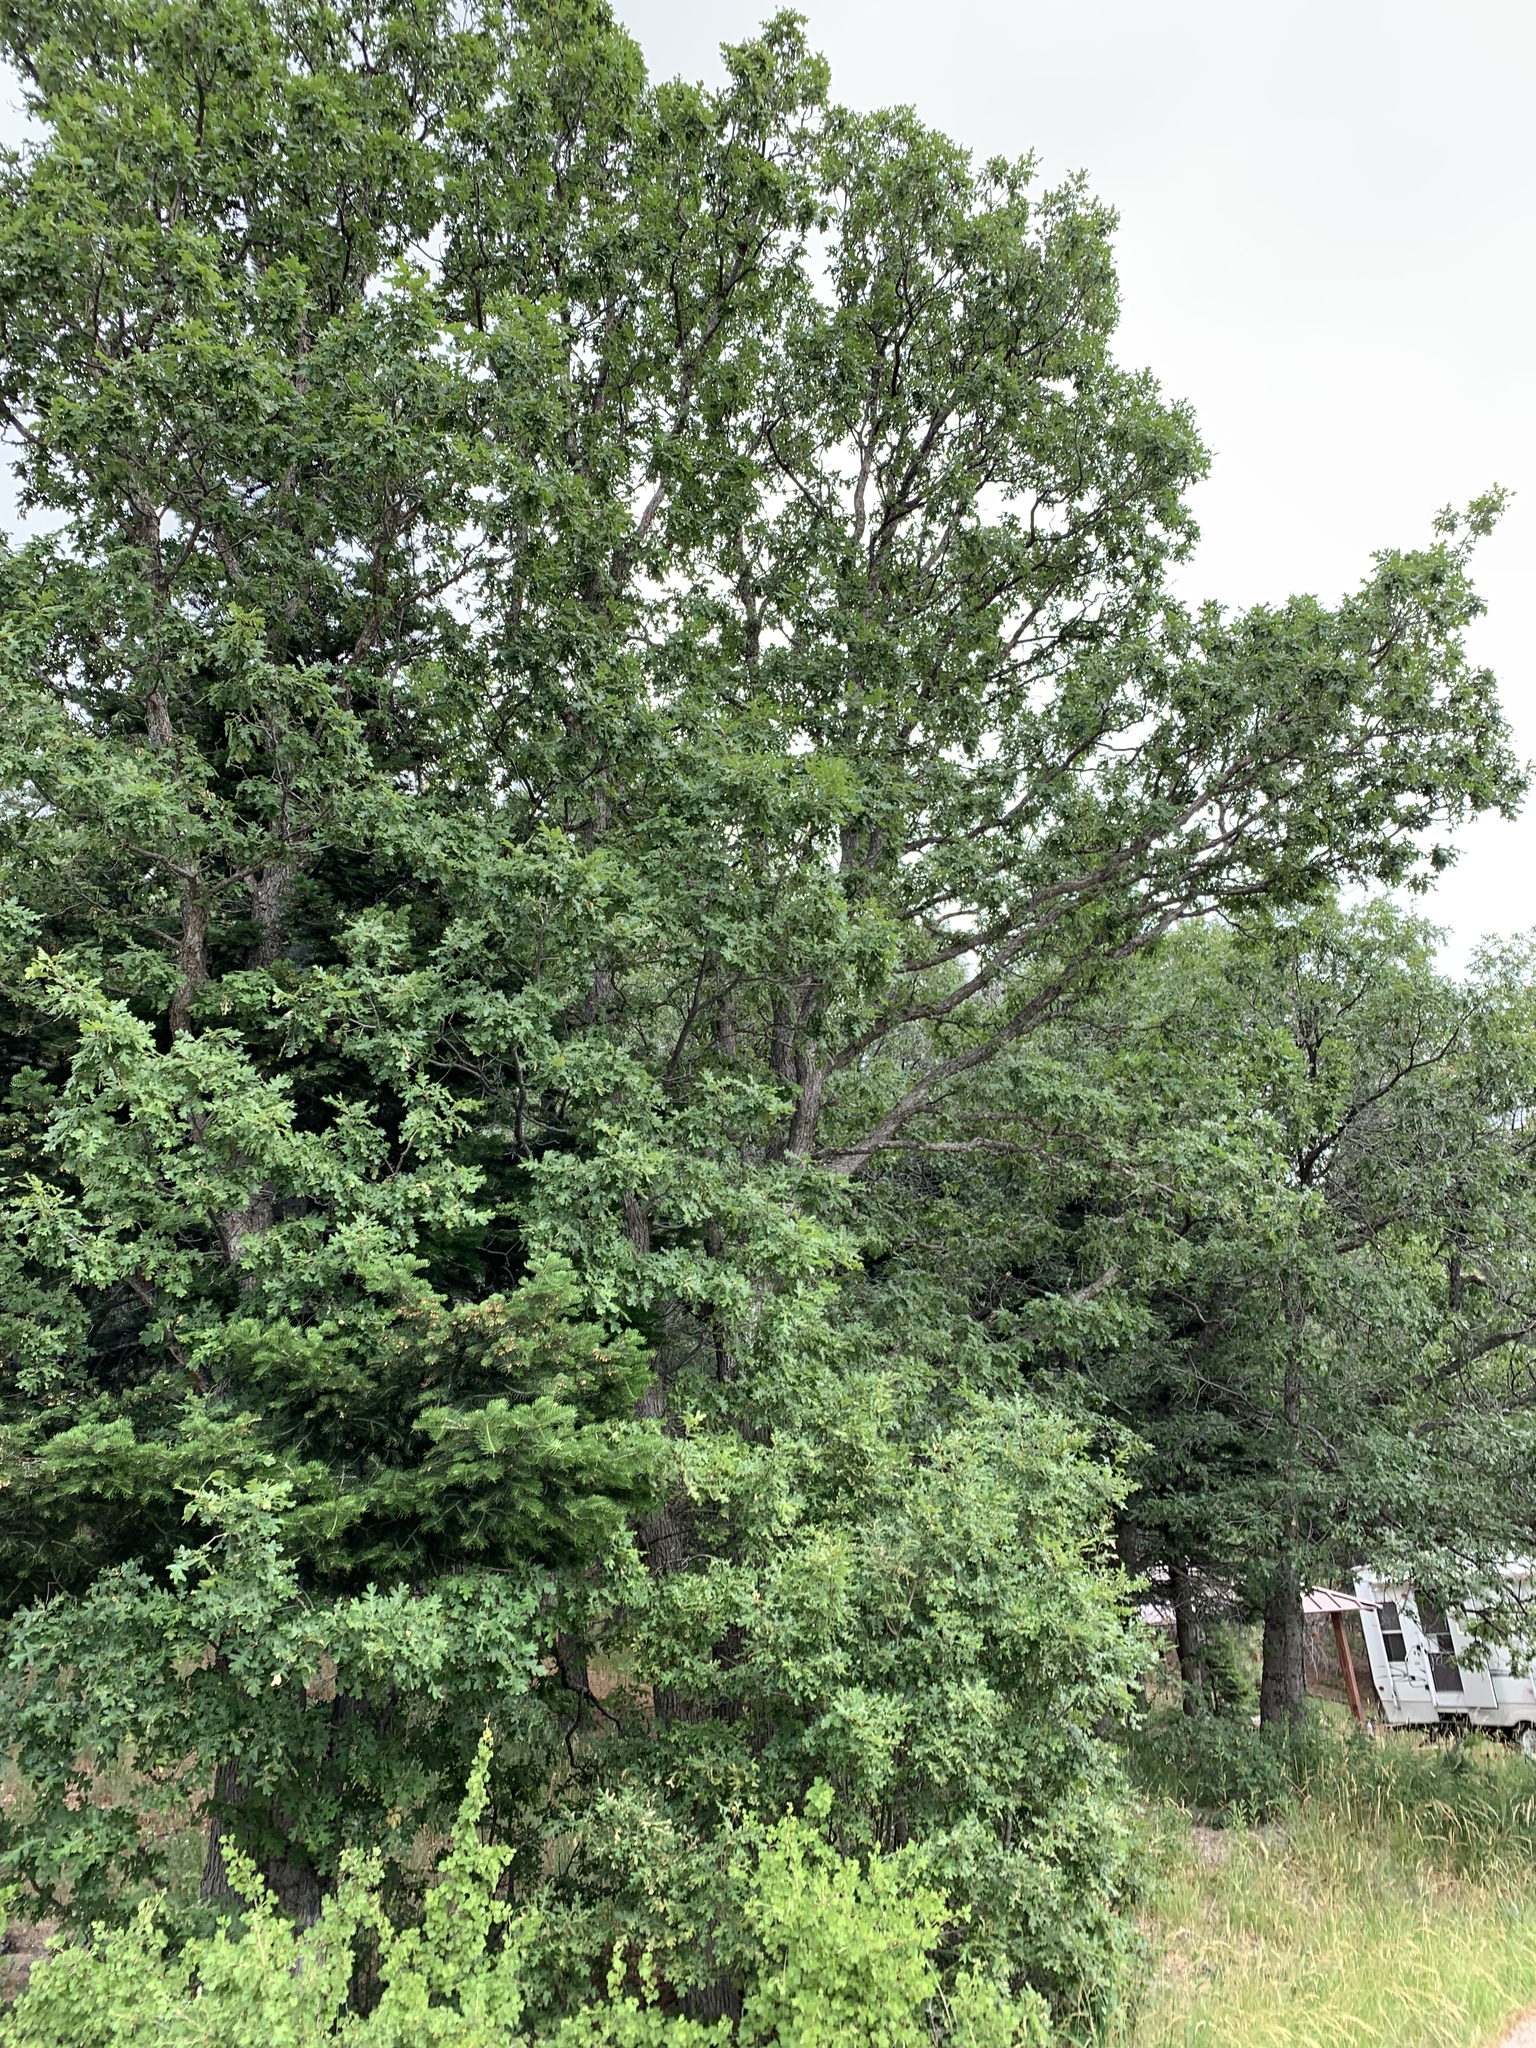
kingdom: Plantae
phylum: Tracheophyta
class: Magnoliopsida
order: Fagales
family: Fagaceae
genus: Quercus
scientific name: Quercus gambelii
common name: Gambel oak
